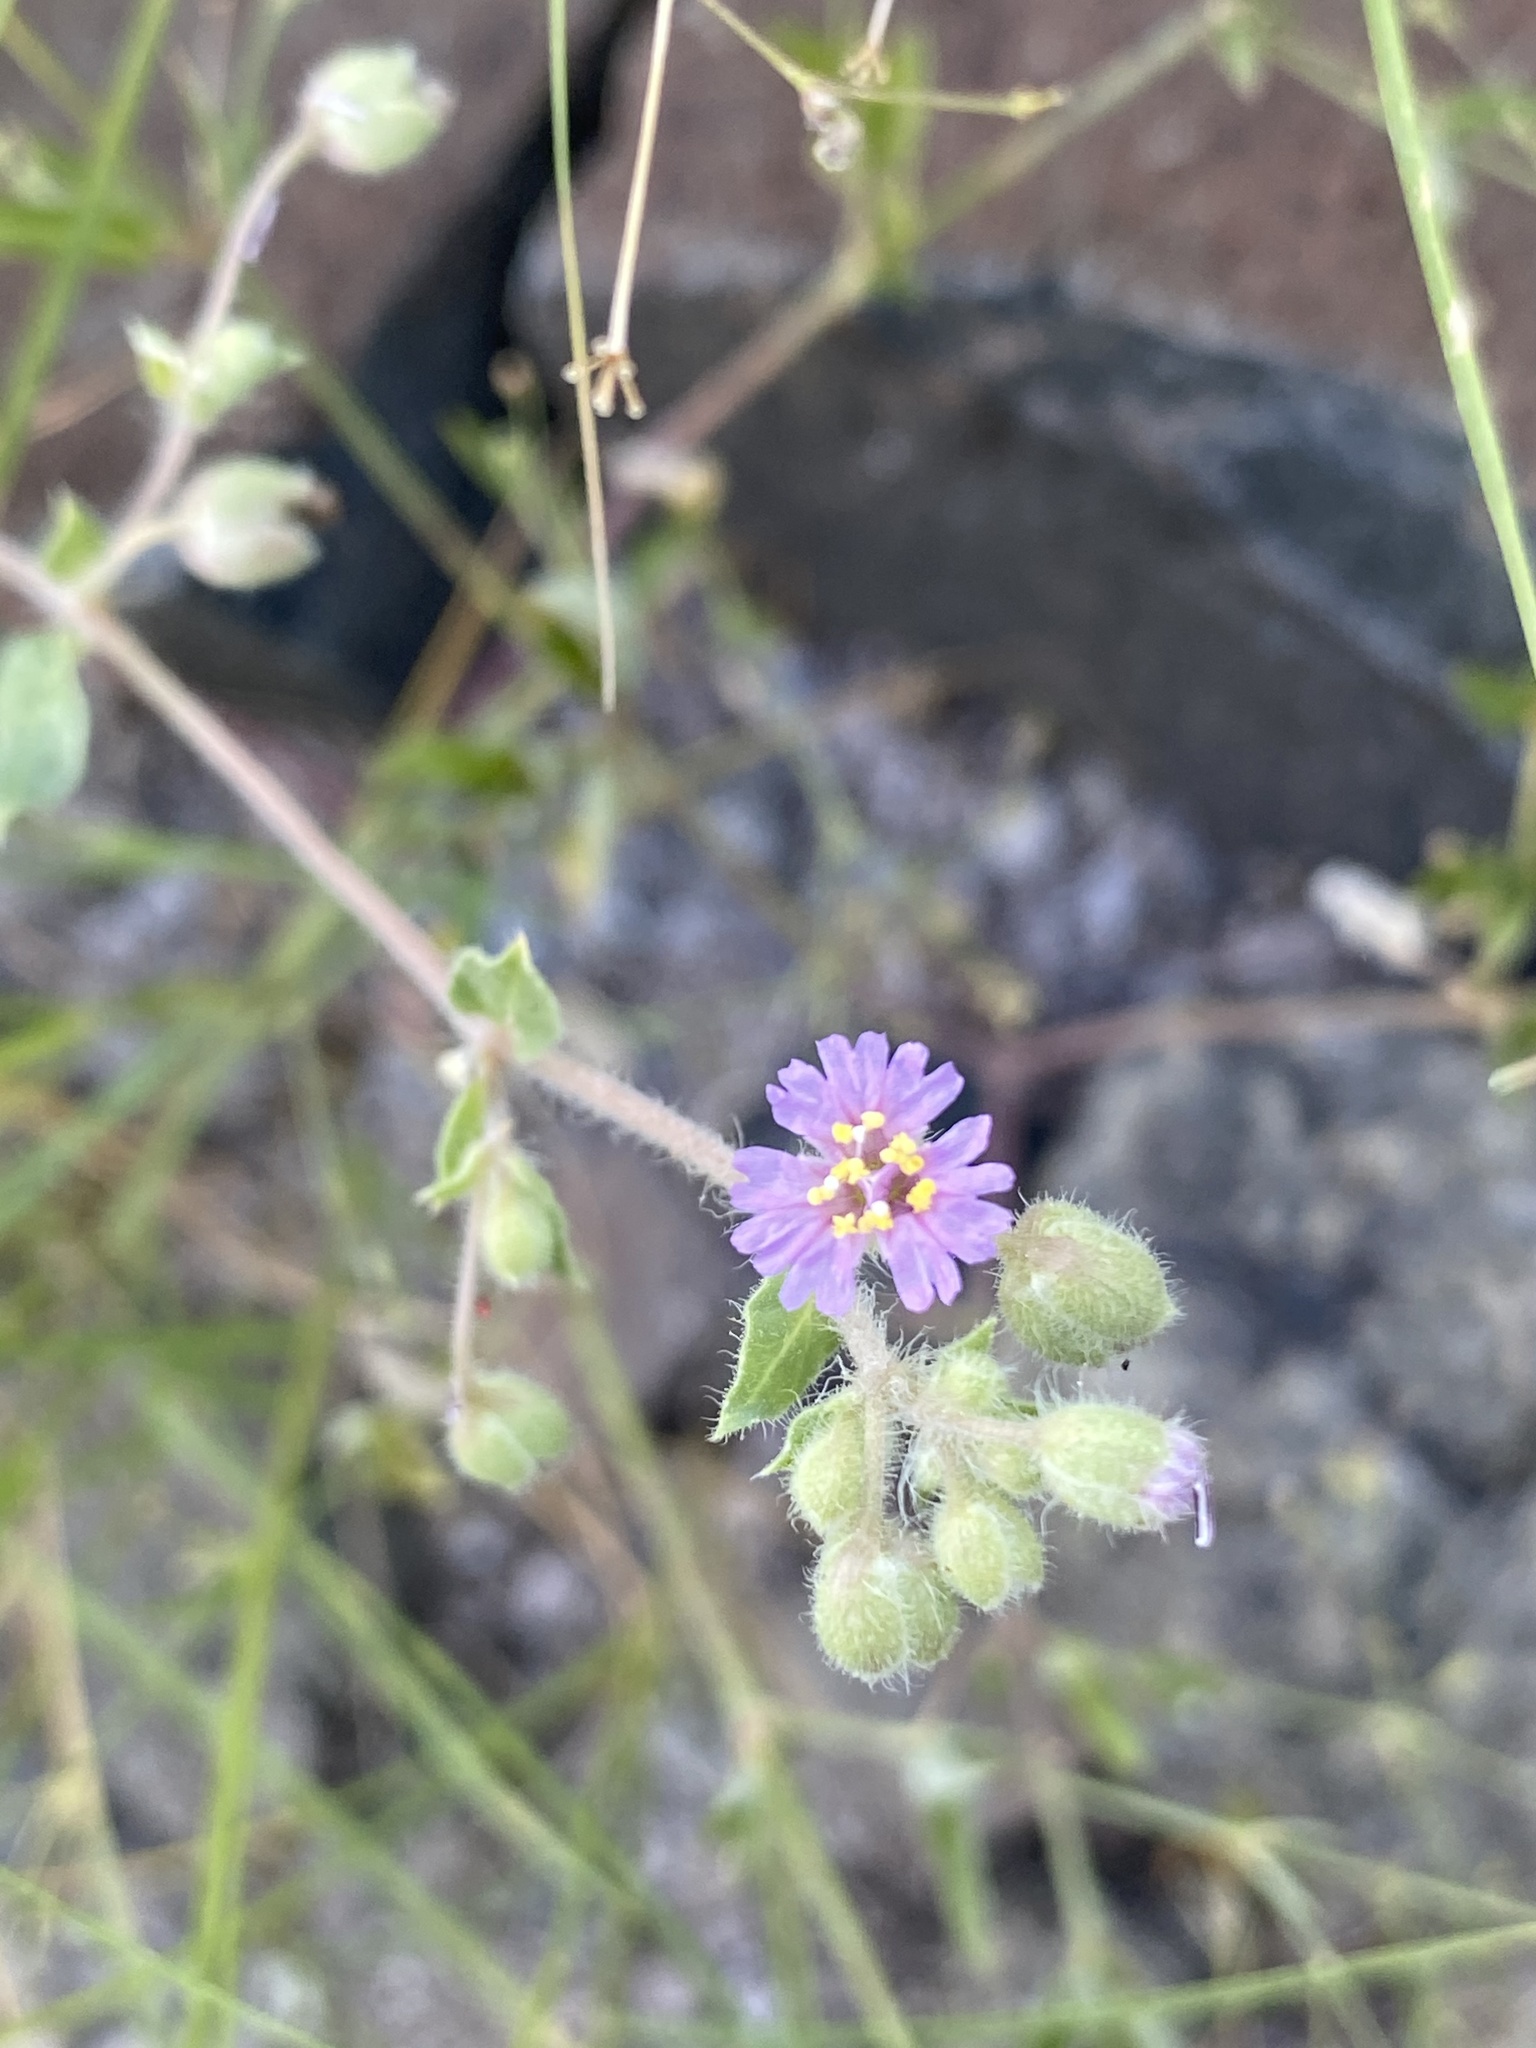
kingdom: Plantae
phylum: Tracheophyta
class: Magnoliopsida
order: Caryophyllales
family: Nyctaginaceae
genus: Allionia
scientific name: Allionia incarnata
